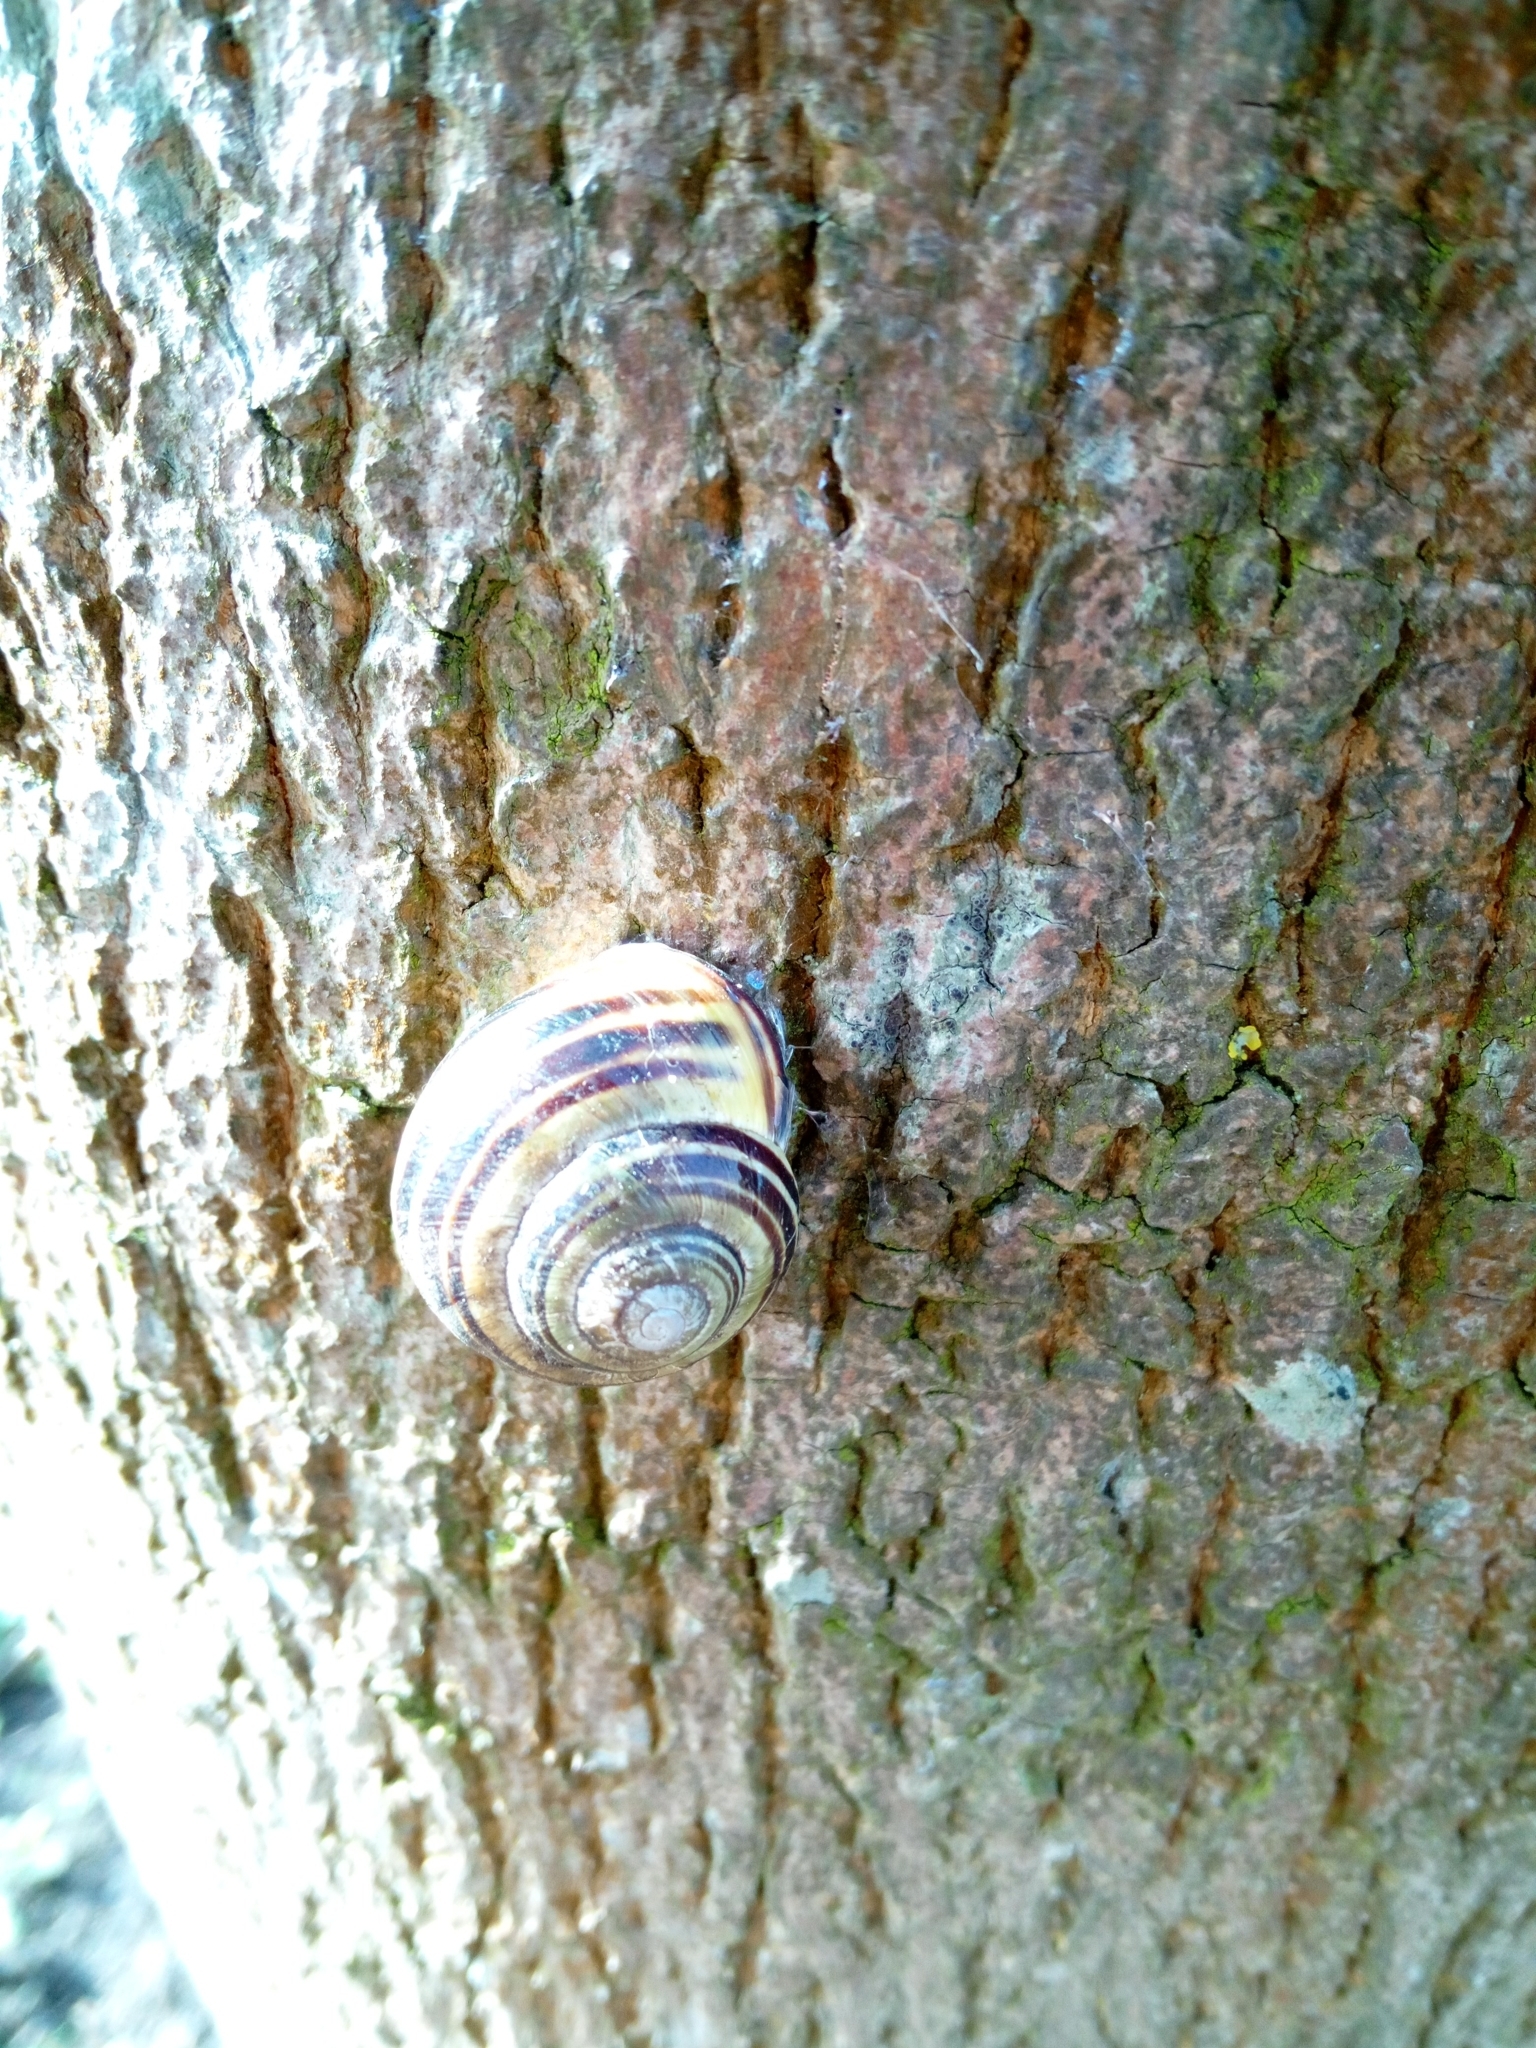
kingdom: Animalia
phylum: Mollusca
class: Gastropoda
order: Stylommatophora
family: Helicidae
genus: Cepaea
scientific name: Cepaea nemoralis
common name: Grovesnail
